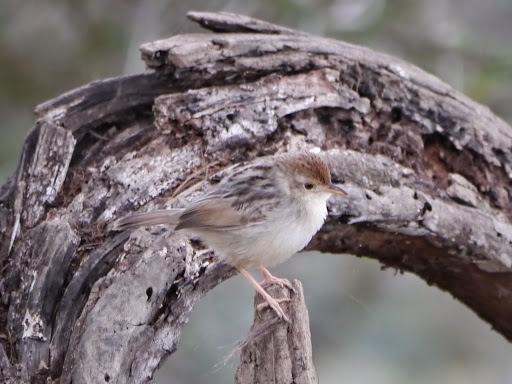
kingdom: Animalia
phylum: Chordata
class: Aves
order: Passeriformes
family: Cisticolidae
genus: Cisticola
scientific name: Cisticola chiniana
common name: Rattling cisticola
